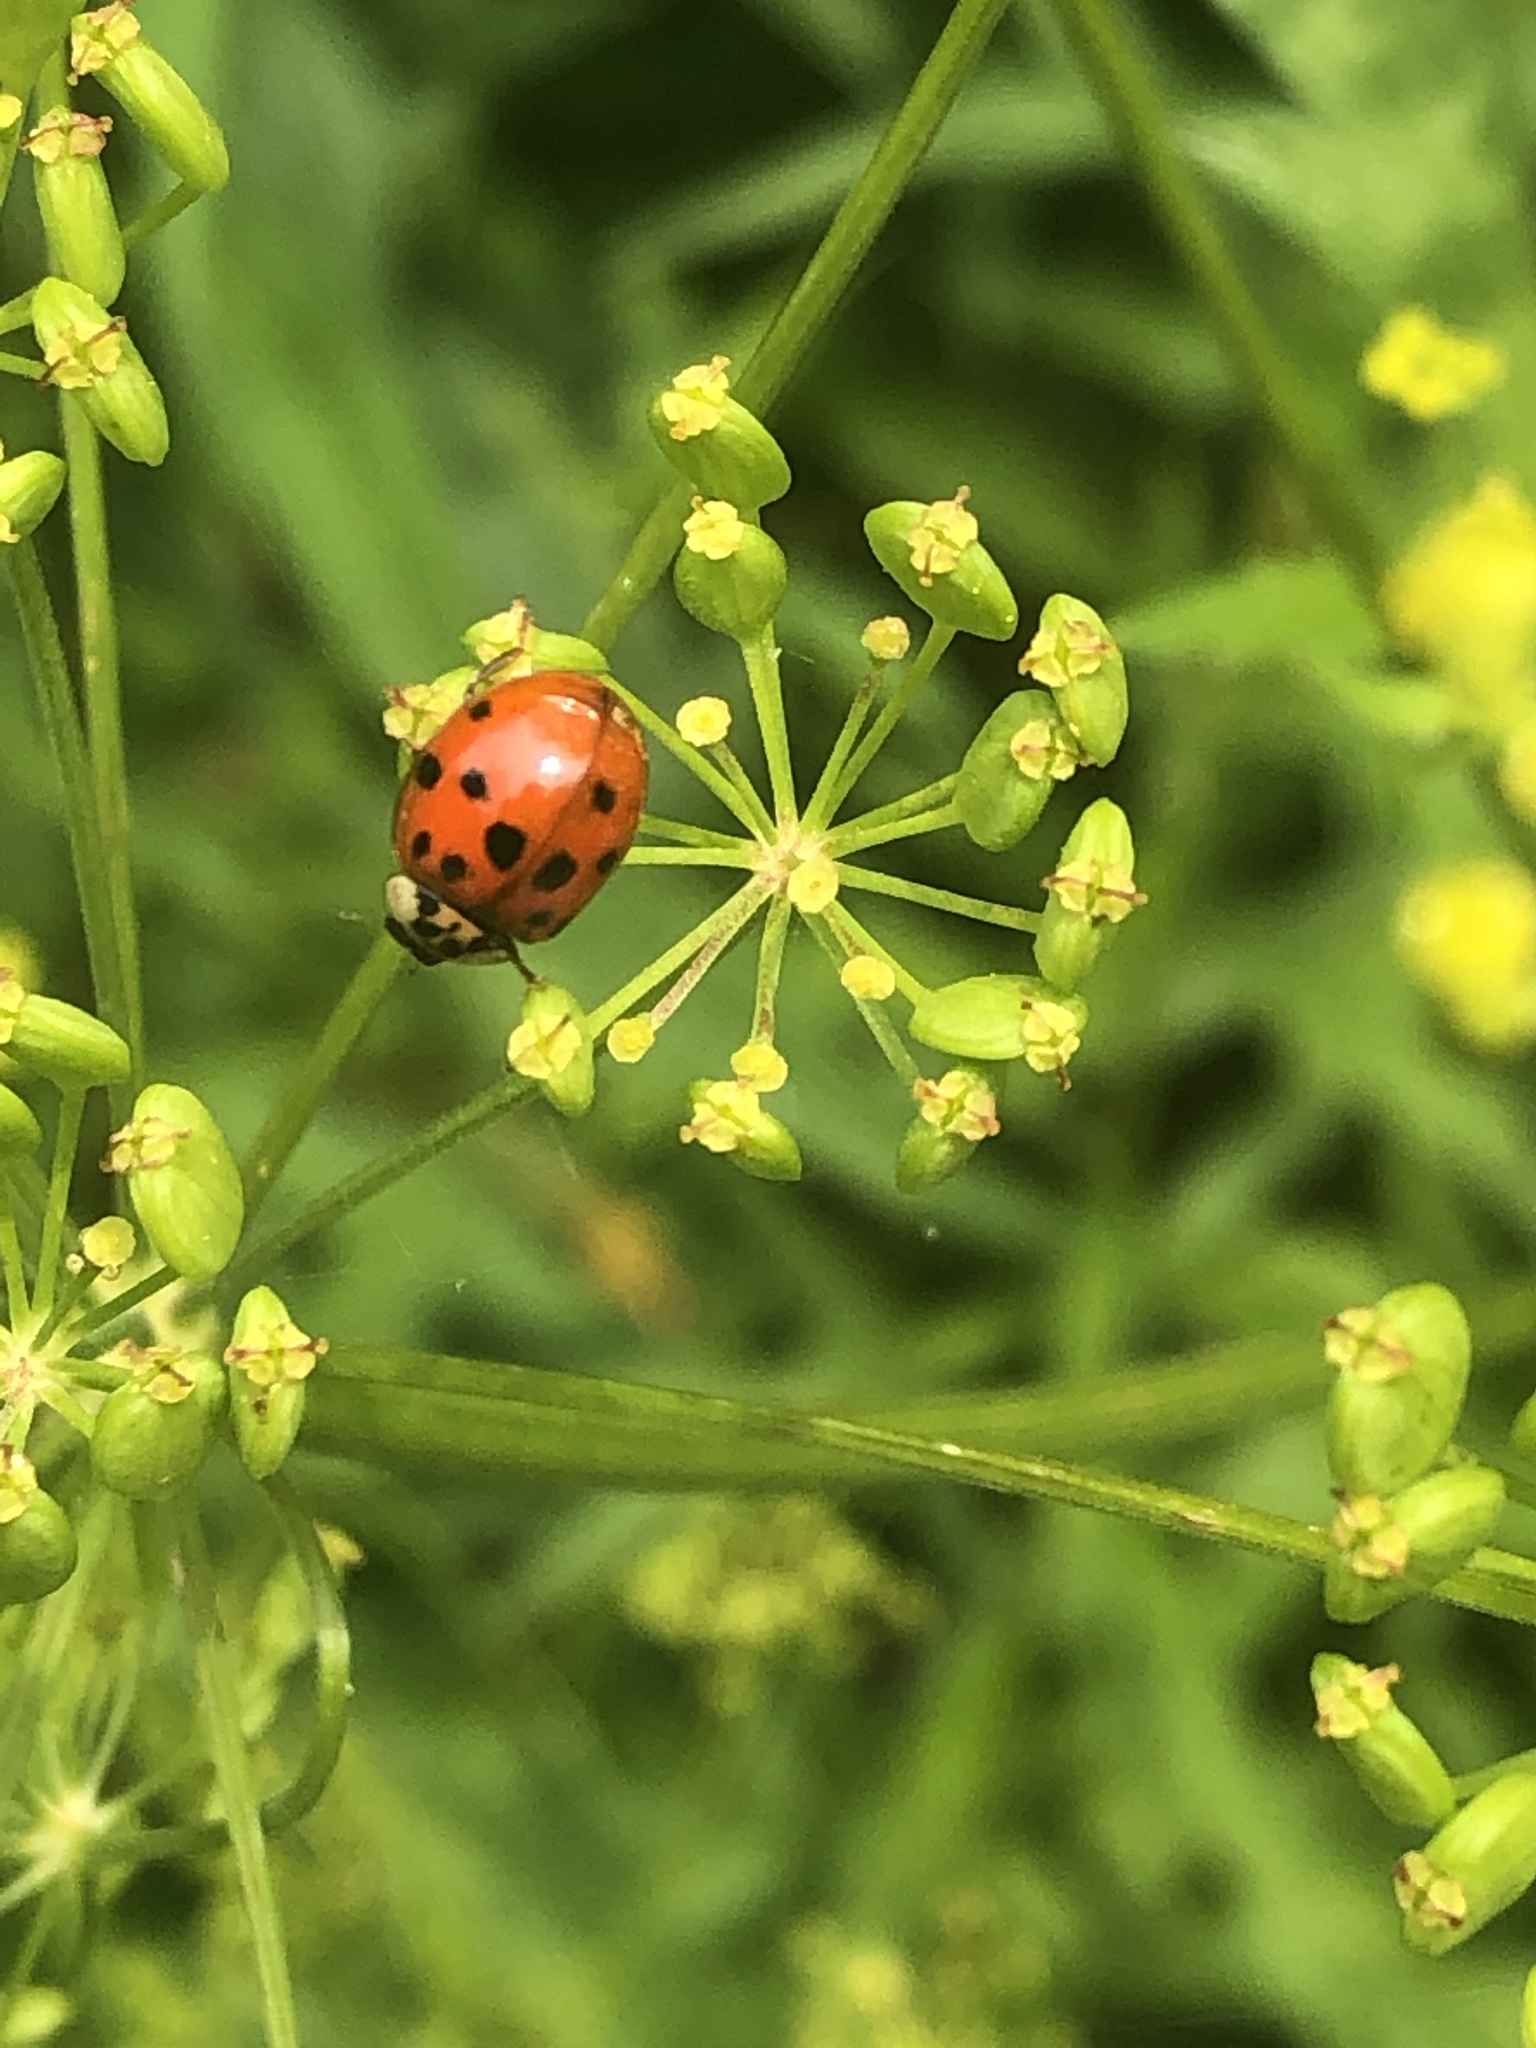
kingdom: Animalia
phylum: Arthropoda
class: Insecta
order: Coleoptera
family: Coccinellidae
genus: Harmonia
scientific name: Harmonia axyridis
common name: Harlequin ladybird
